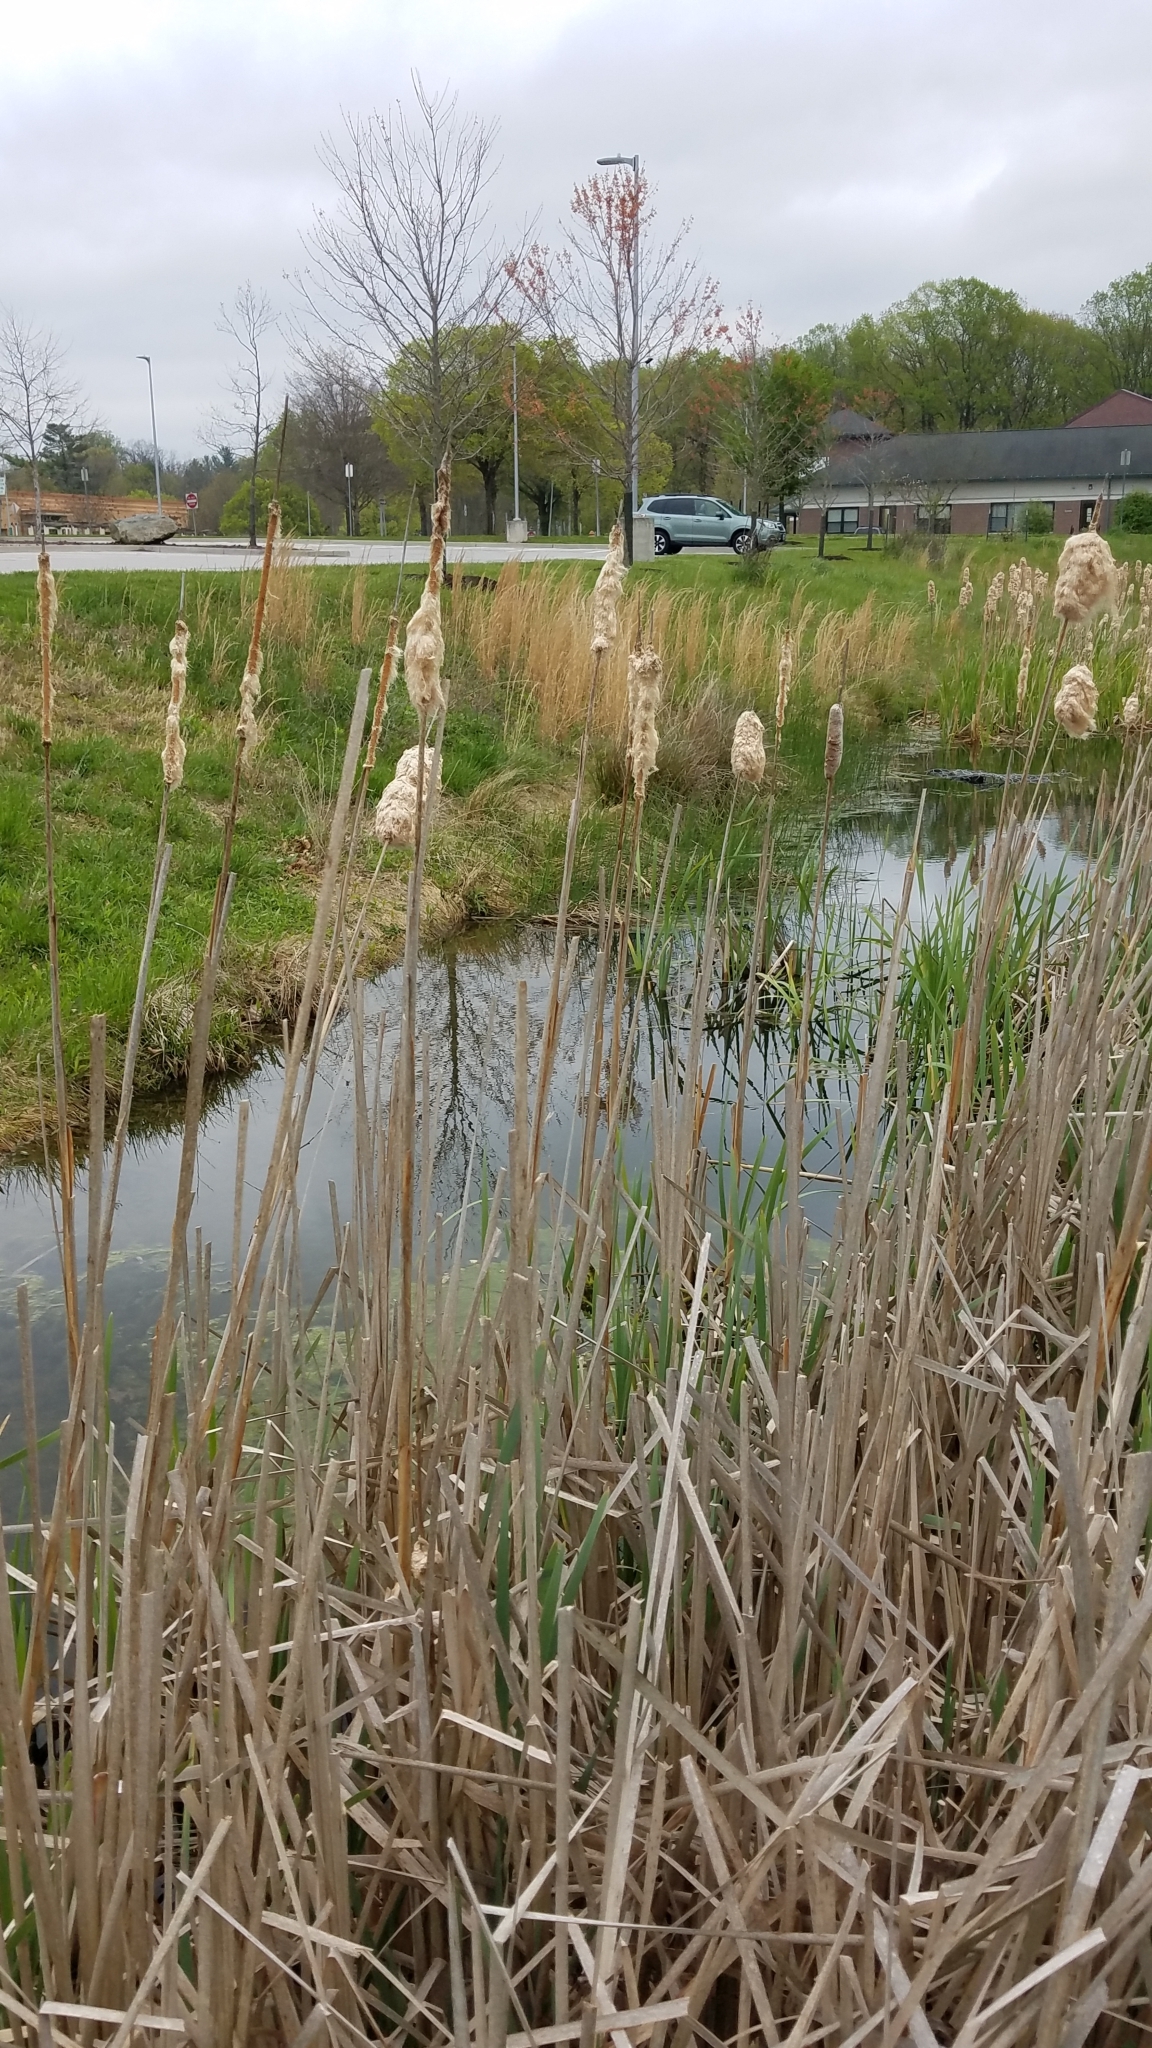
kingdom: Plantae
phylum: Tracheophyta
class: Liliopsida
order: Poales
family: Typhaceae
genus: Typha
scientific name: Typha latifolia
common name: Broadleaf cattail
